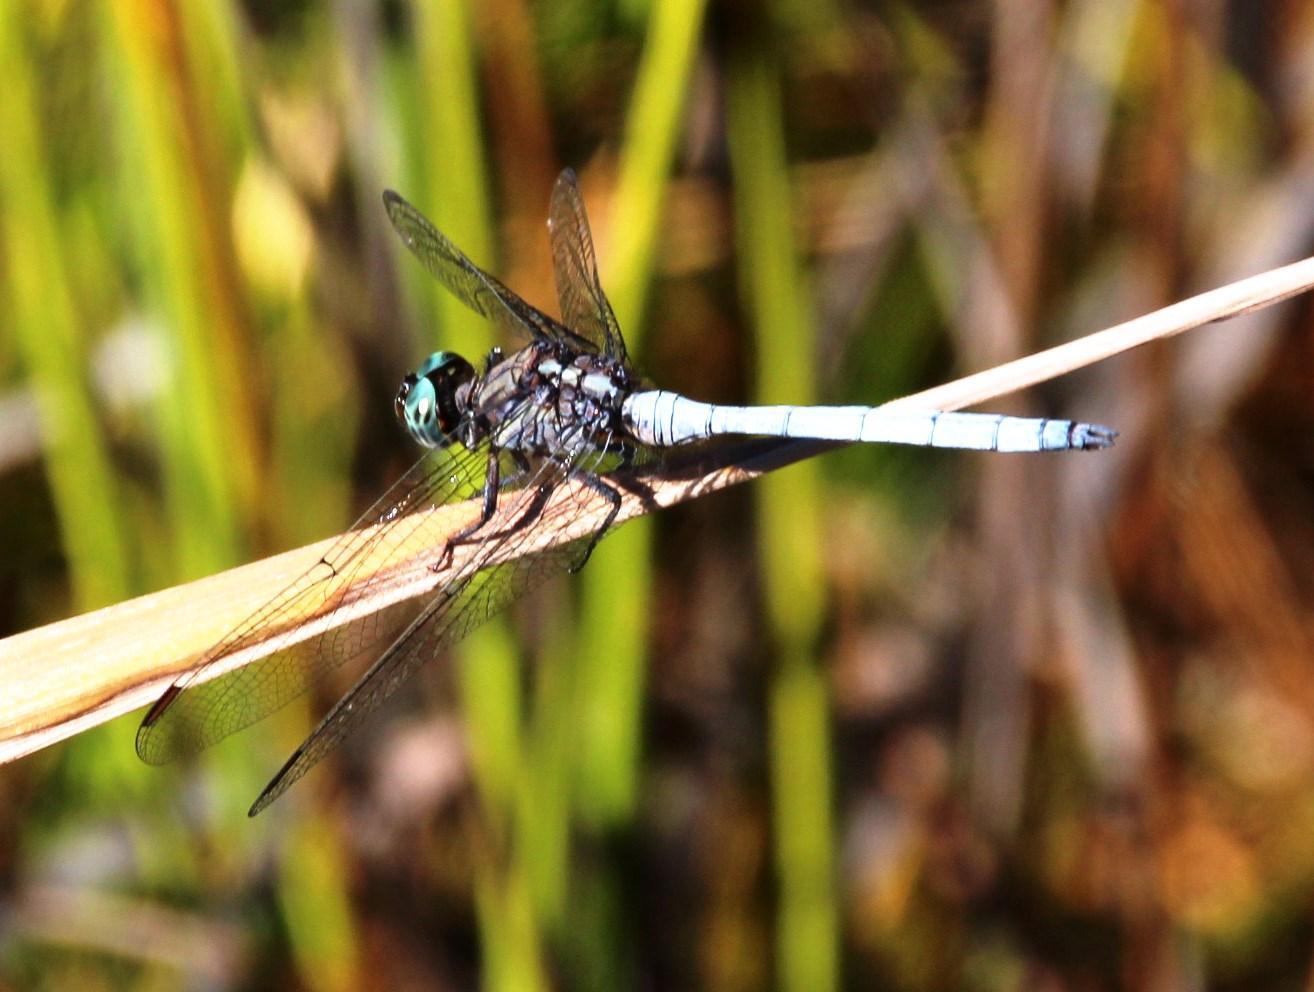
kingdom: Animalia
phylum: Arthropoda
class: Insecta
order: Odonata
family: Libellulidae
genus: Orthetrum
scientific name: Orthetrum caffrum
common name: Two-striped skimmer
